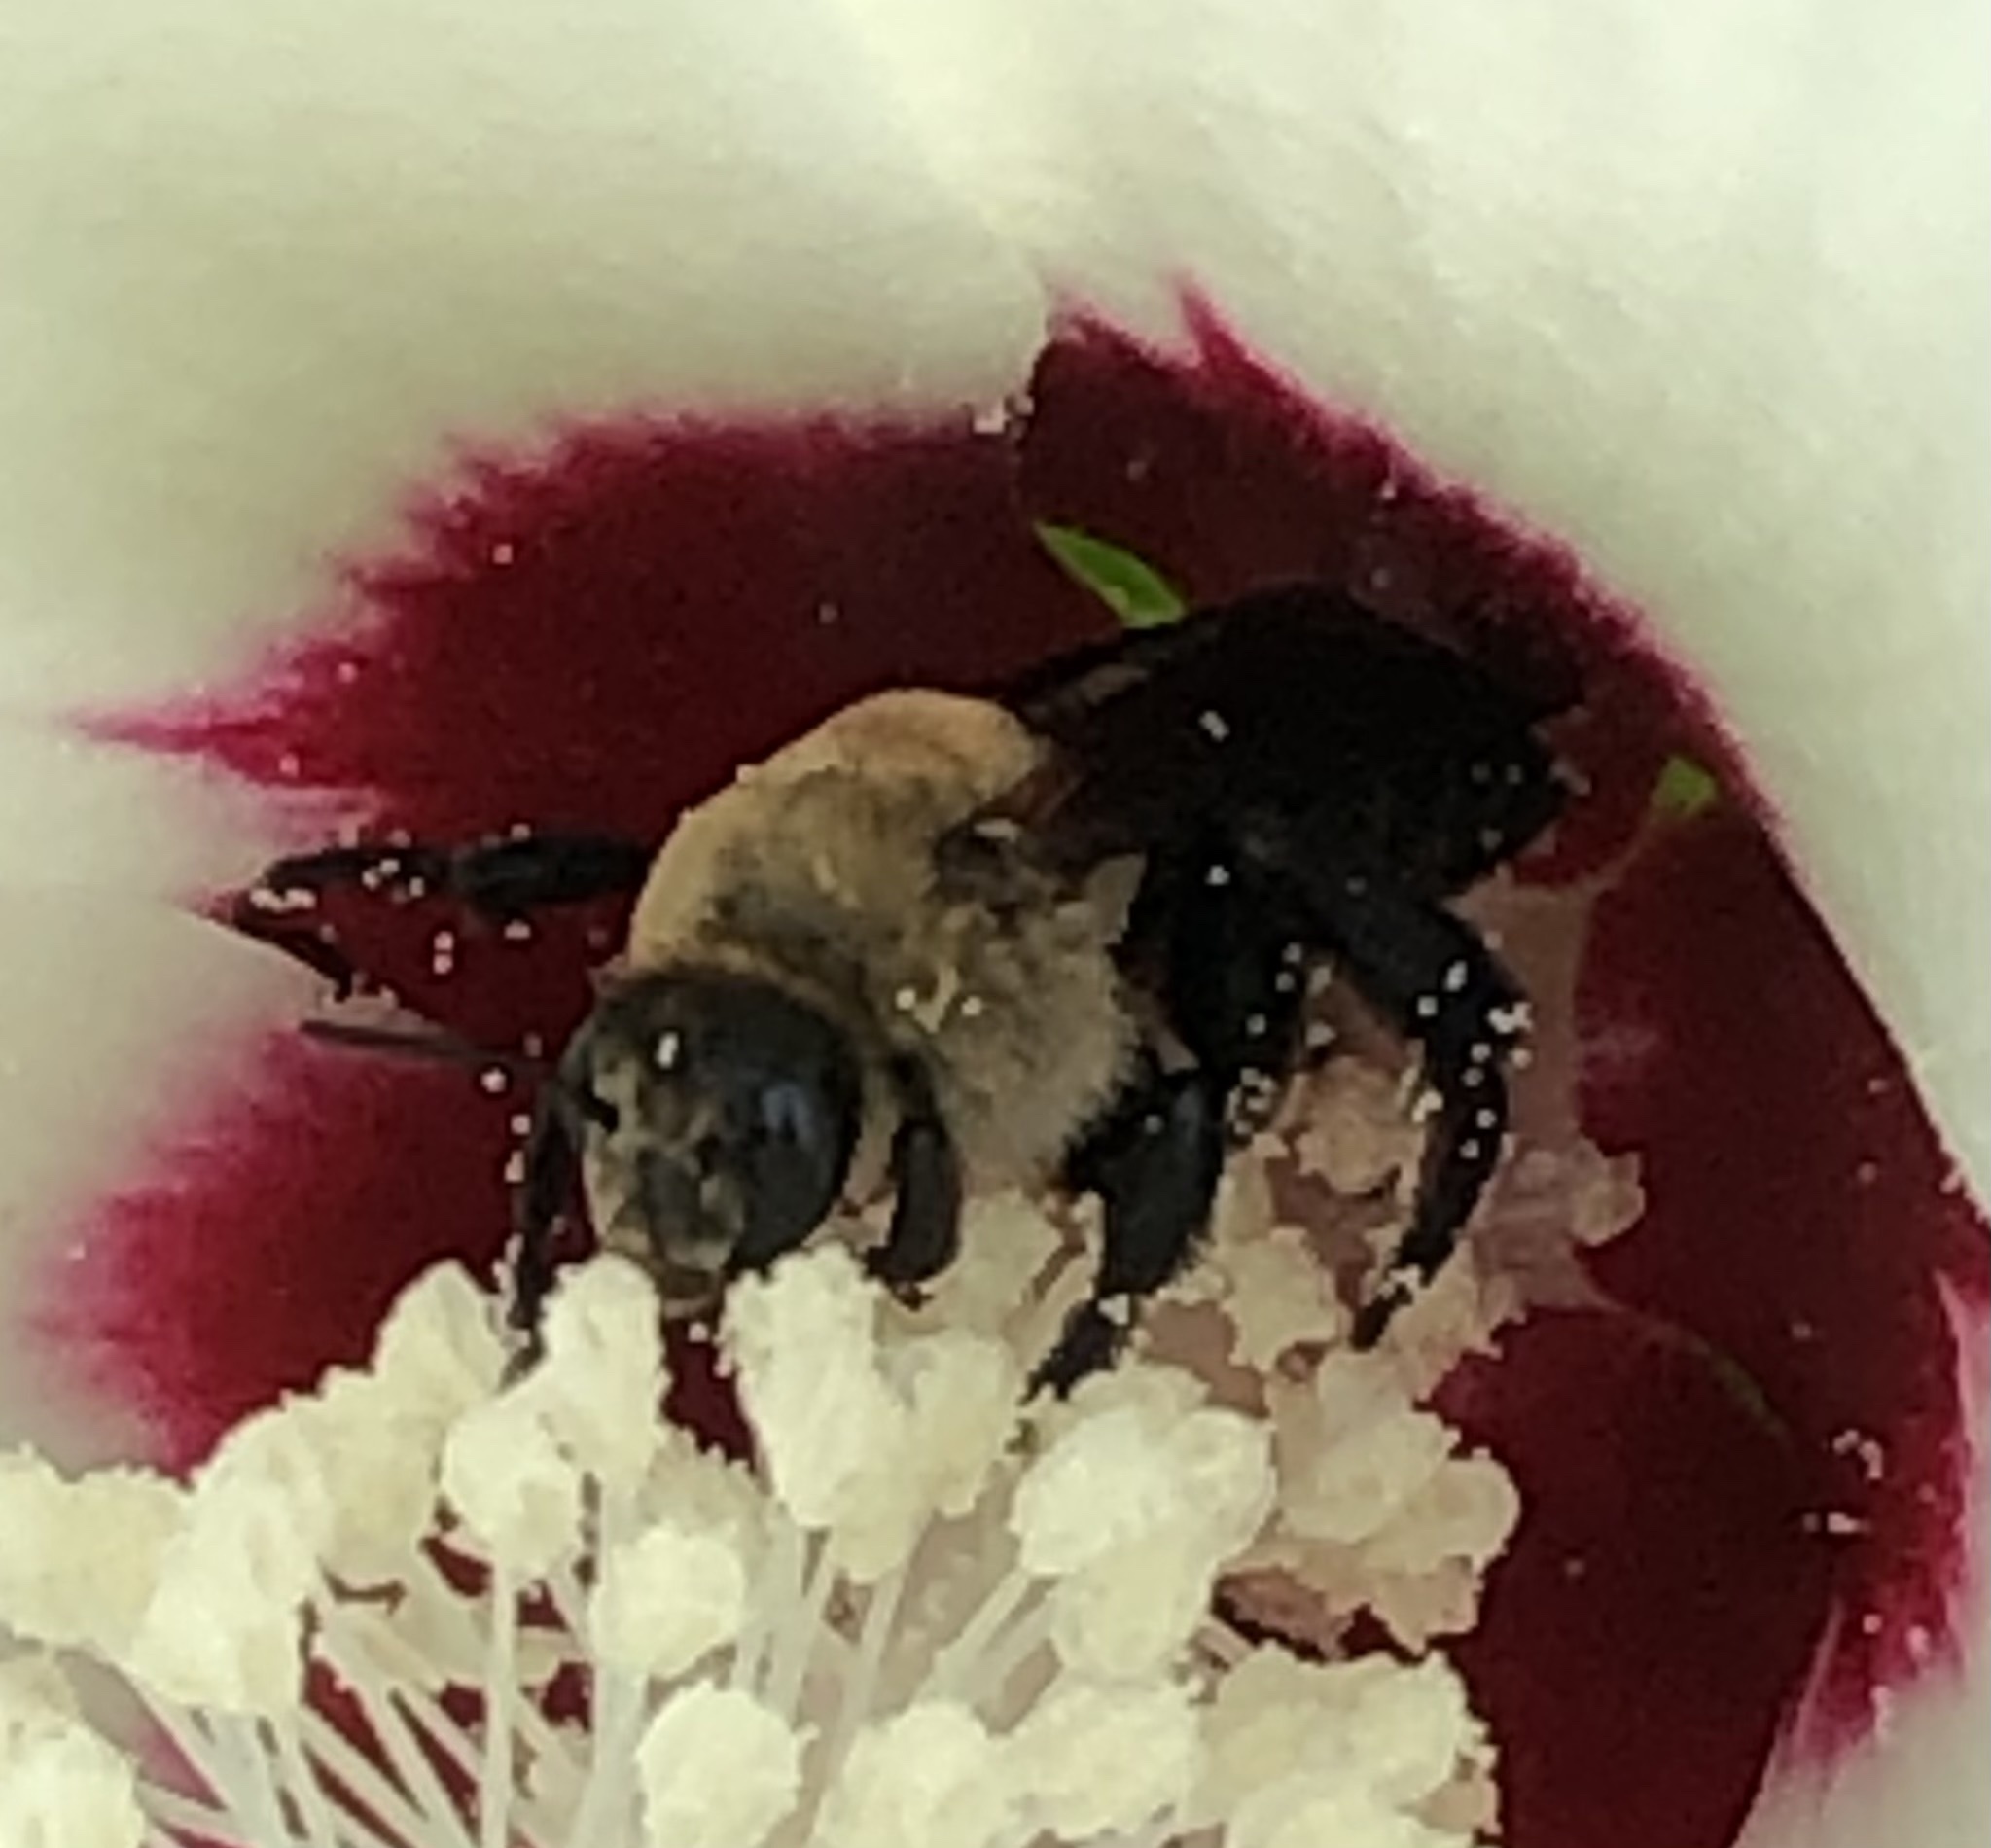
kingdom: Animalia
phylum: Arthropoda
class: Insecta
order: Hymenoptera
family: Apidae
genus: Ptilothrix
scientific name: Ptilothrix bombiformis
